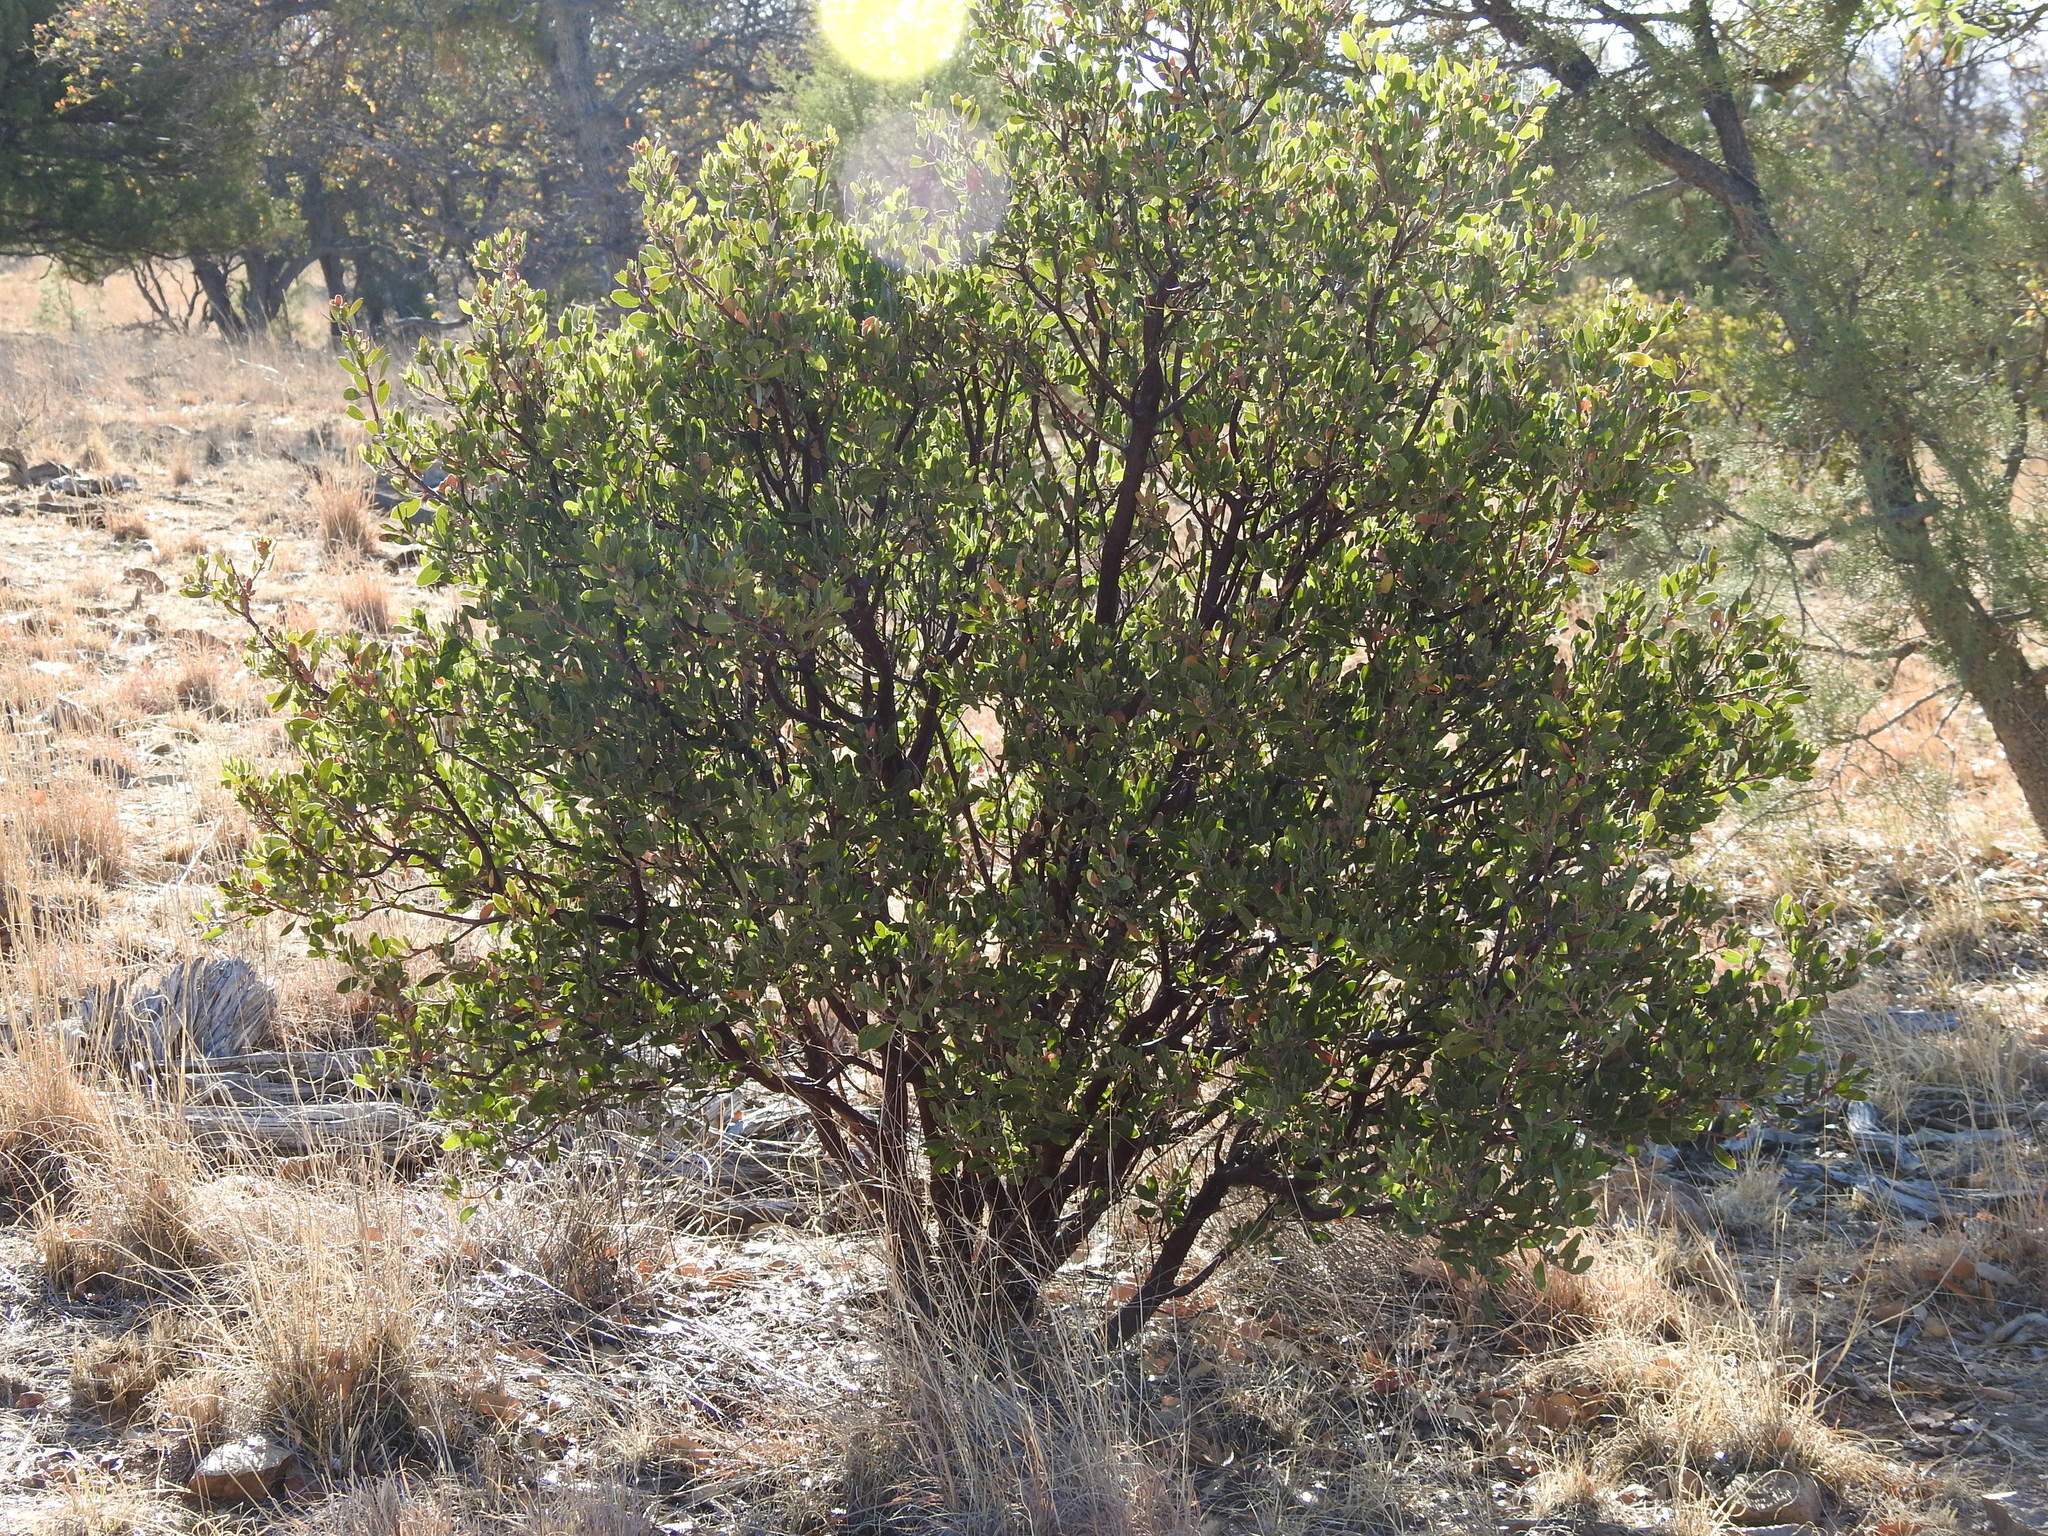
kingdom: Plantae
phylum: Tracheophyta
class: Magnoliopsida
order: Ericales
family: Ericaceae
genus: Arctostaphylos
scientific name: Arctostaphylos pungens
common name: Mexican manzanita
